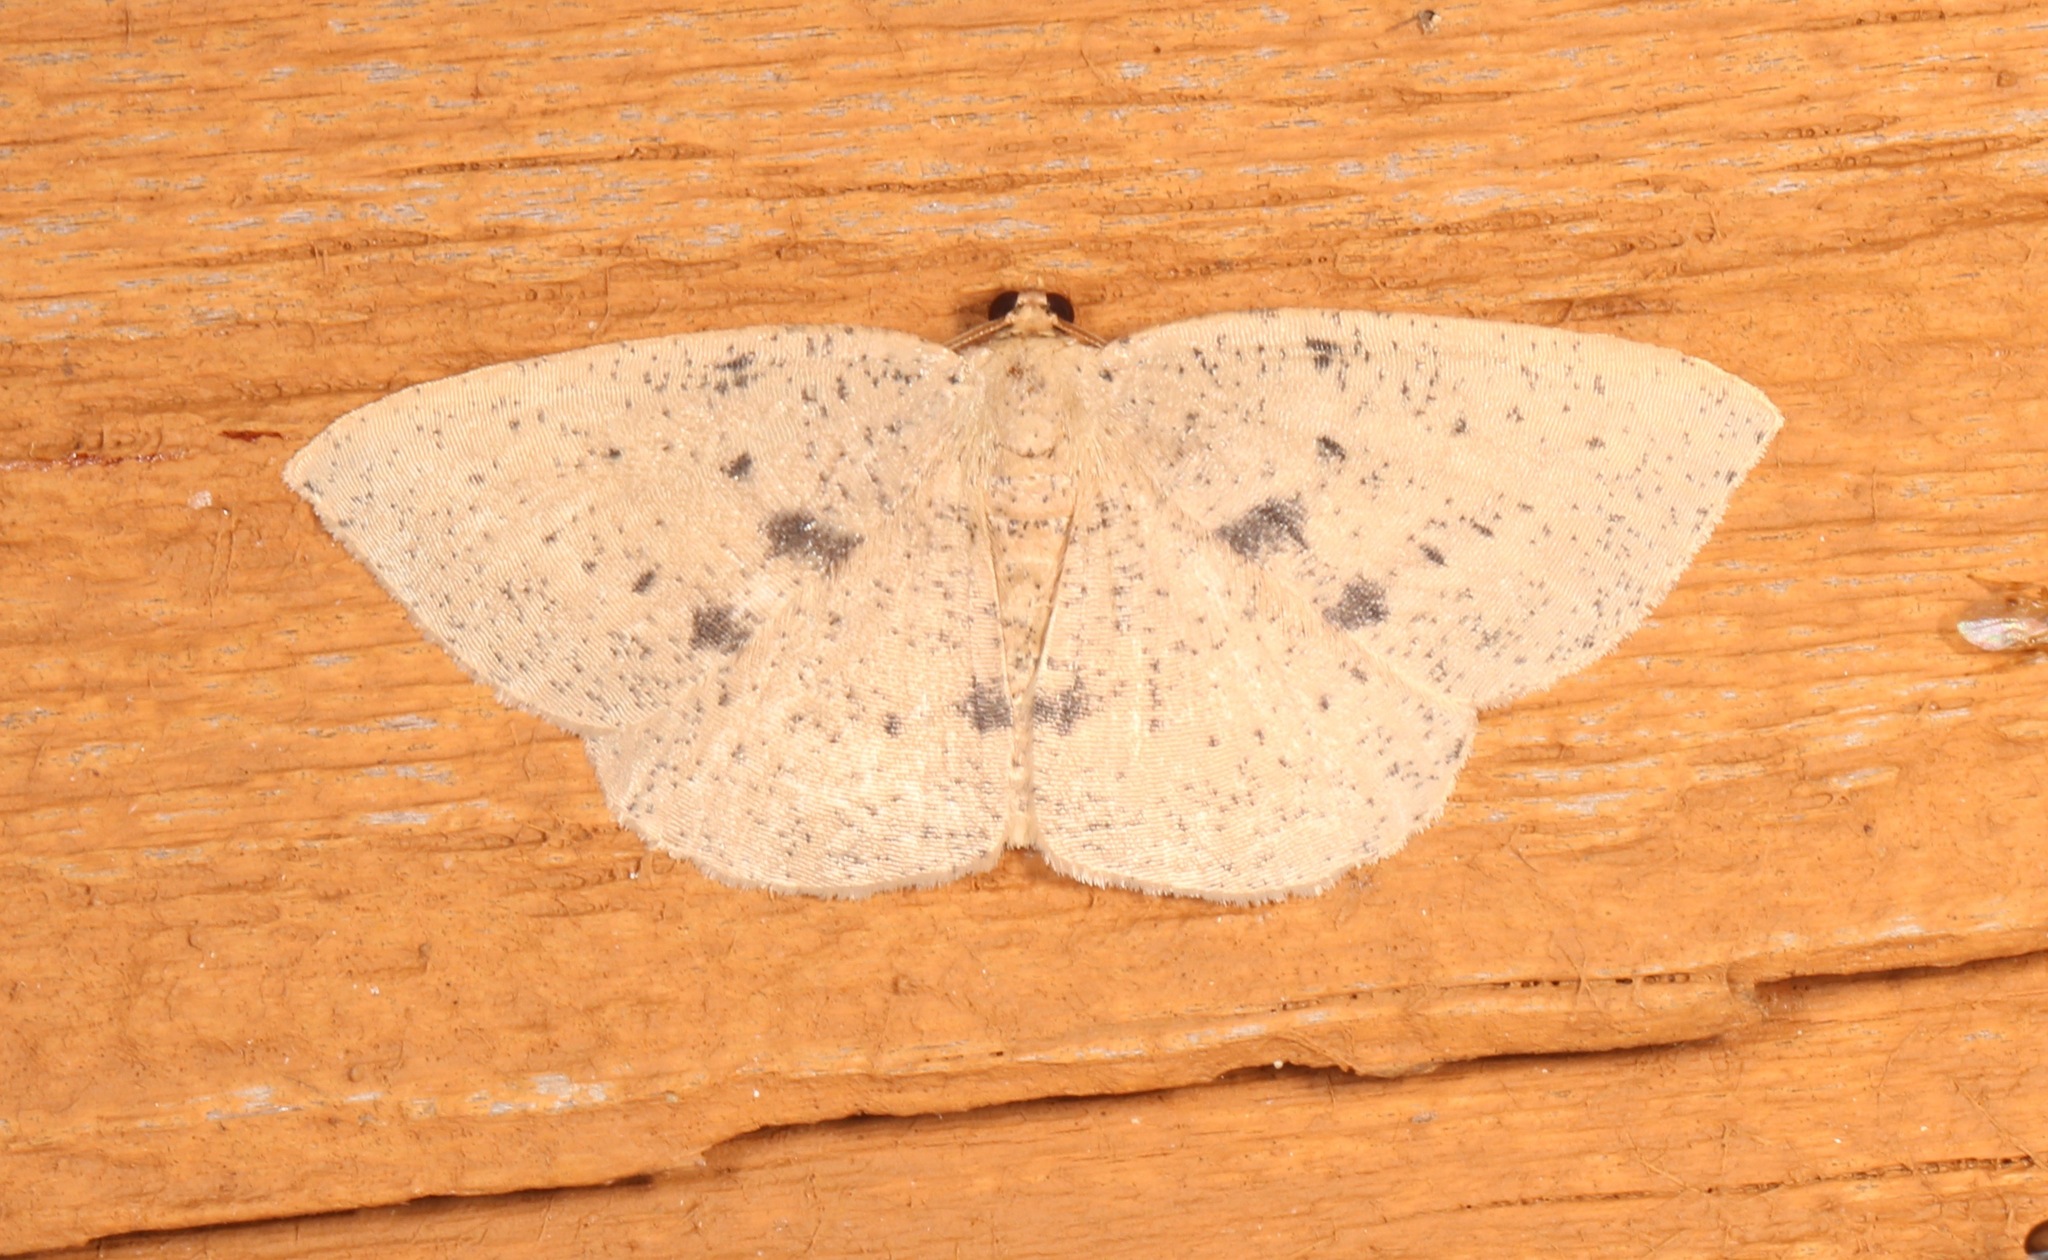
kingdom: Animalia
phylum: Arthropoda
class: Insecta
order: Lepidoptera
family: Geometridae
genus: Episemasia
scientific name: Episemasia solitaria
